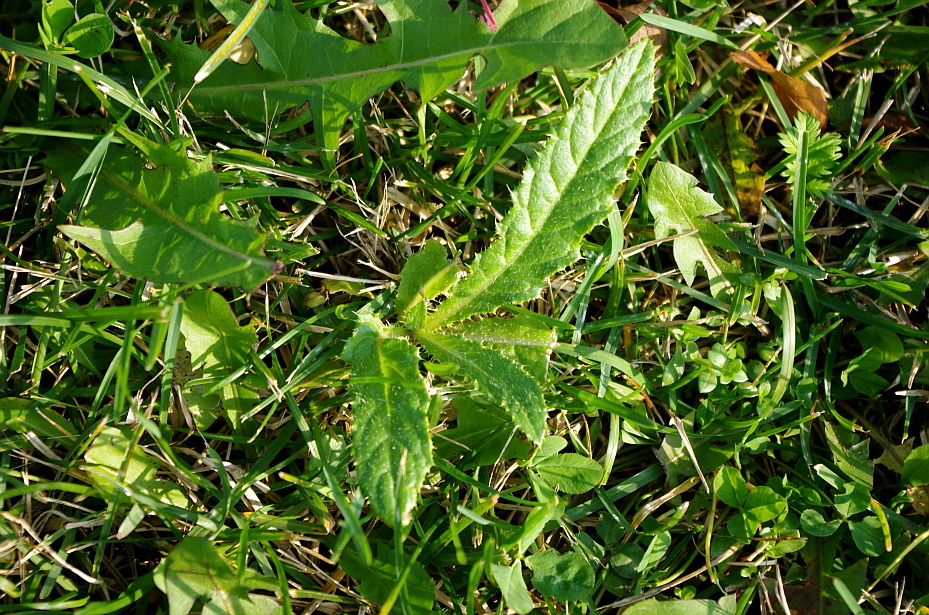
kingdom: Plantae
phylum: Tracheophyta
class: Magnoliopsida
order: Asterales
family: Asteraceae
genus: Cirsium
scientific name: Cirsium arvense
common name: Creeping thistle
